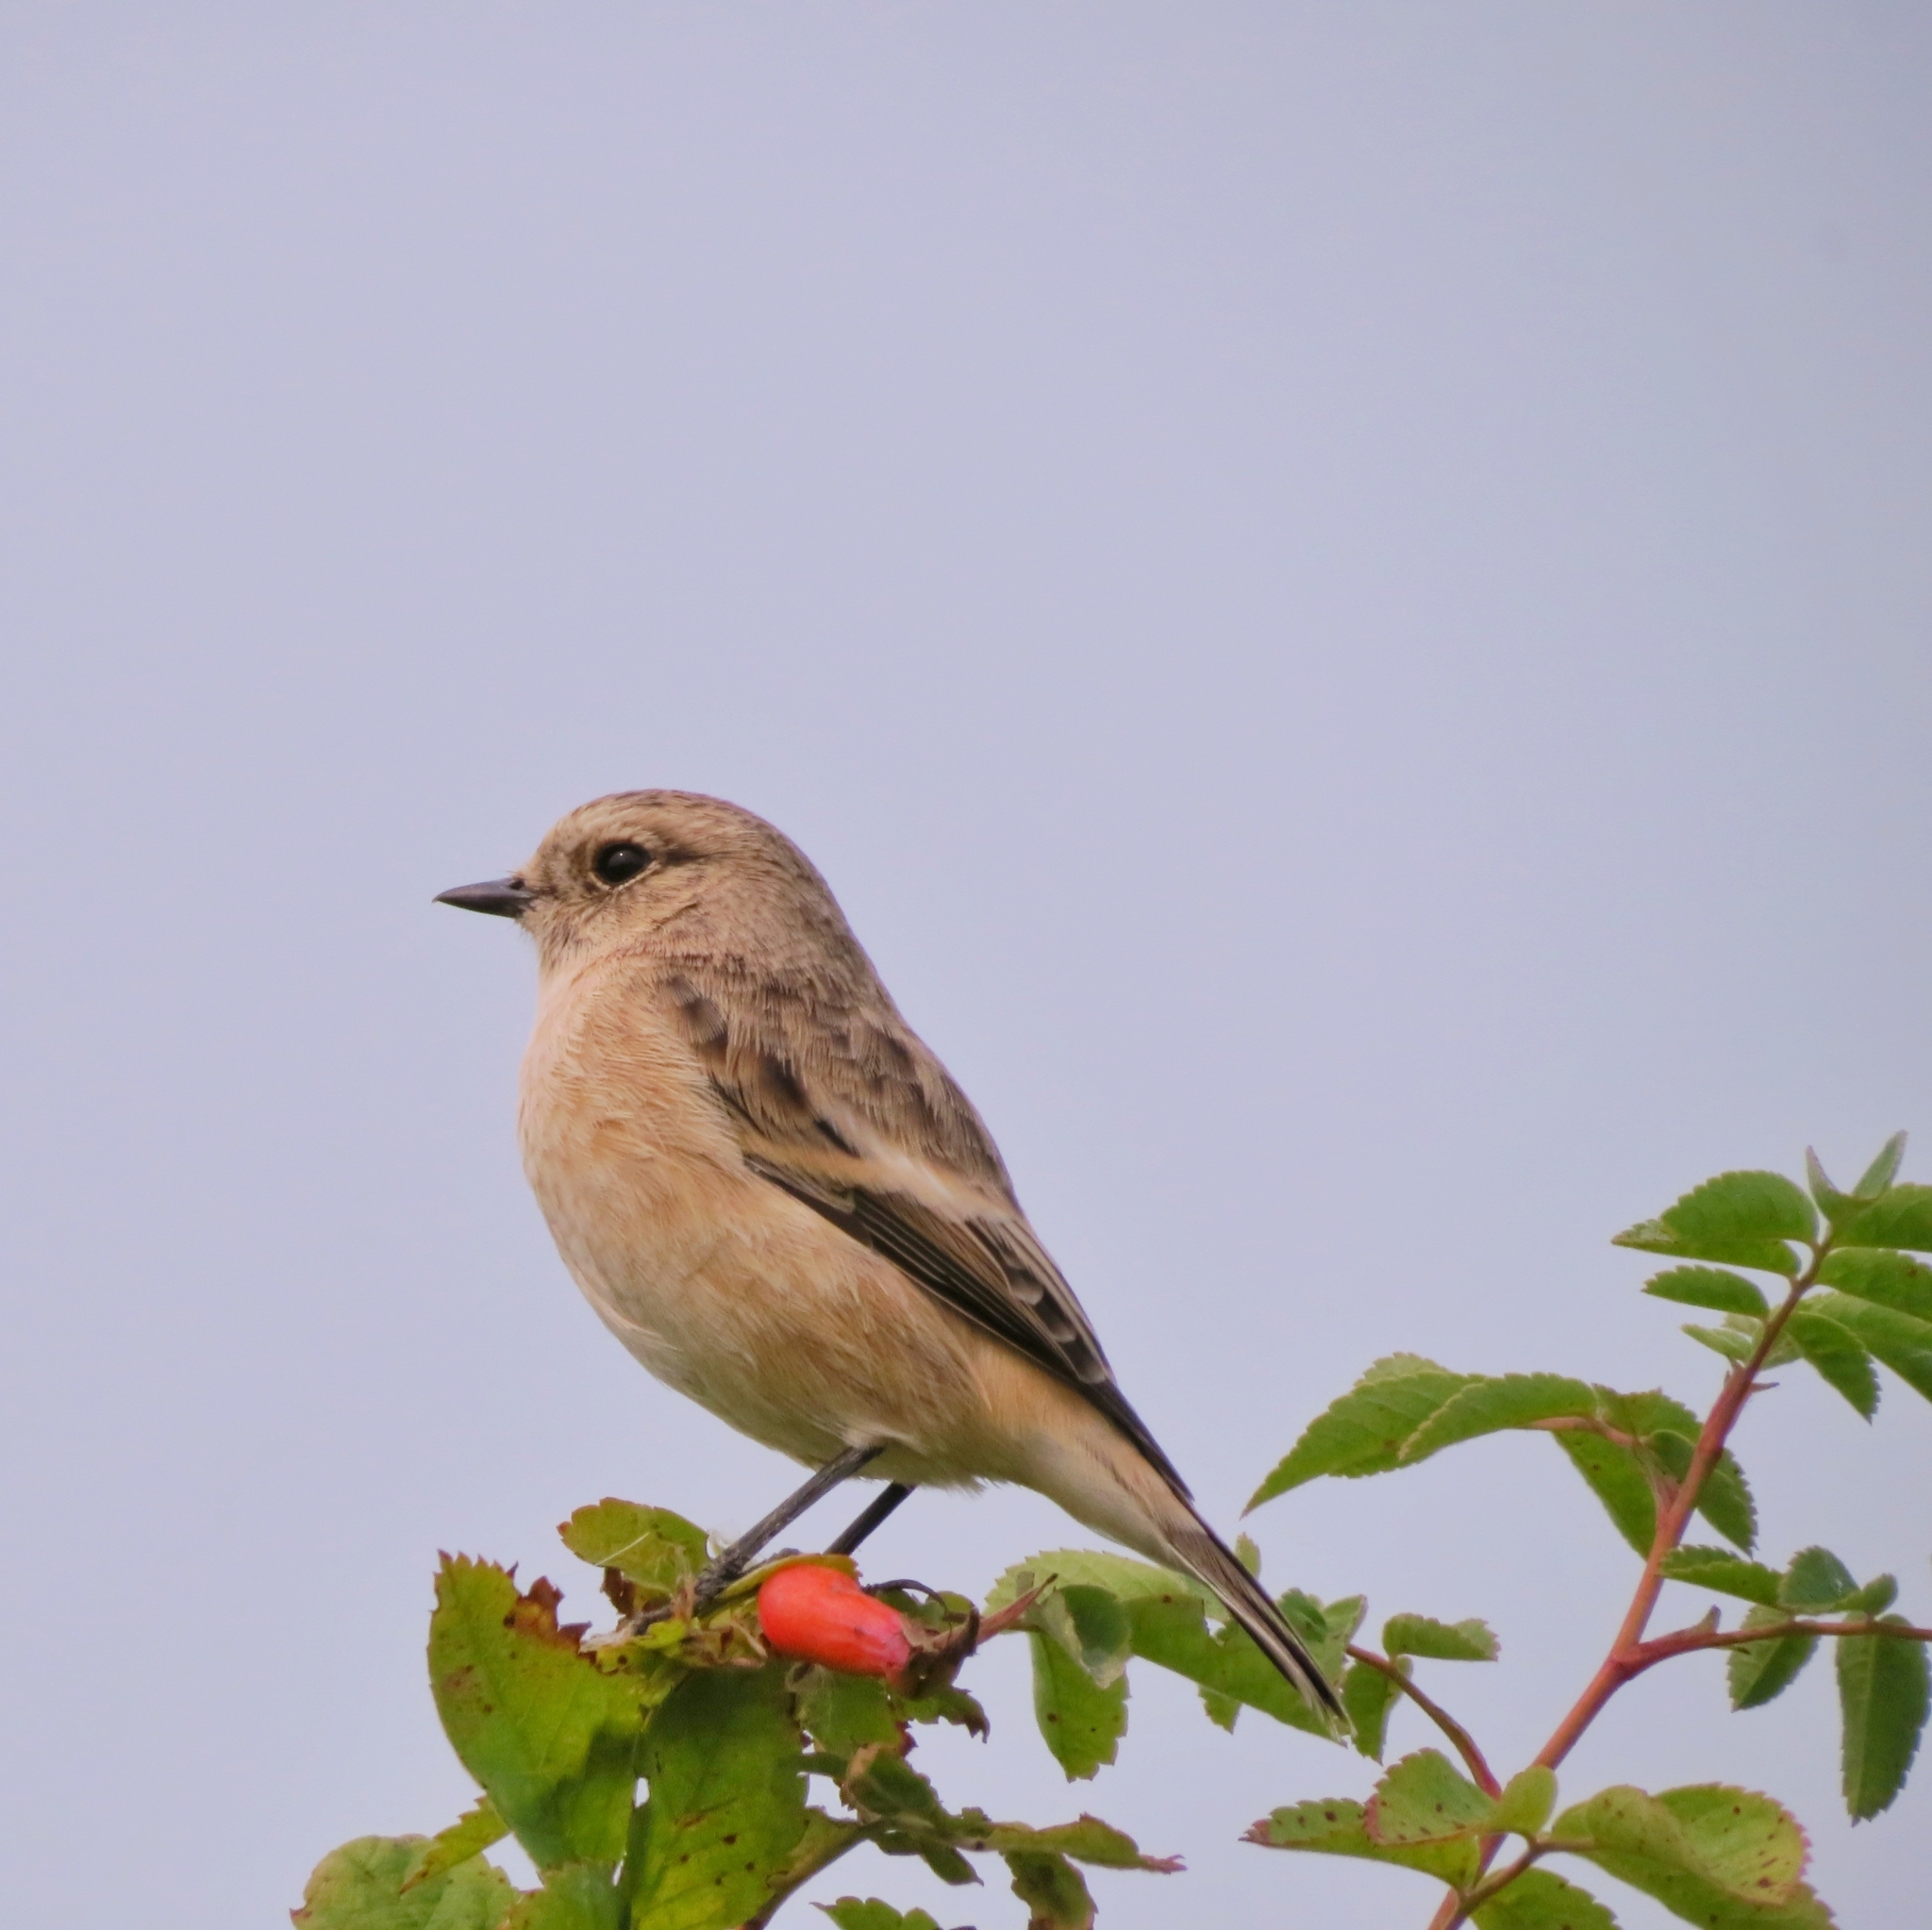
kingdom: Animalia
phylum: Chordata
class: Aves
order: Passeriformes
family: Muscicapidae
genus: Saxicola
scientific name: Saxicola maurus
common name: Siberian stonechat
